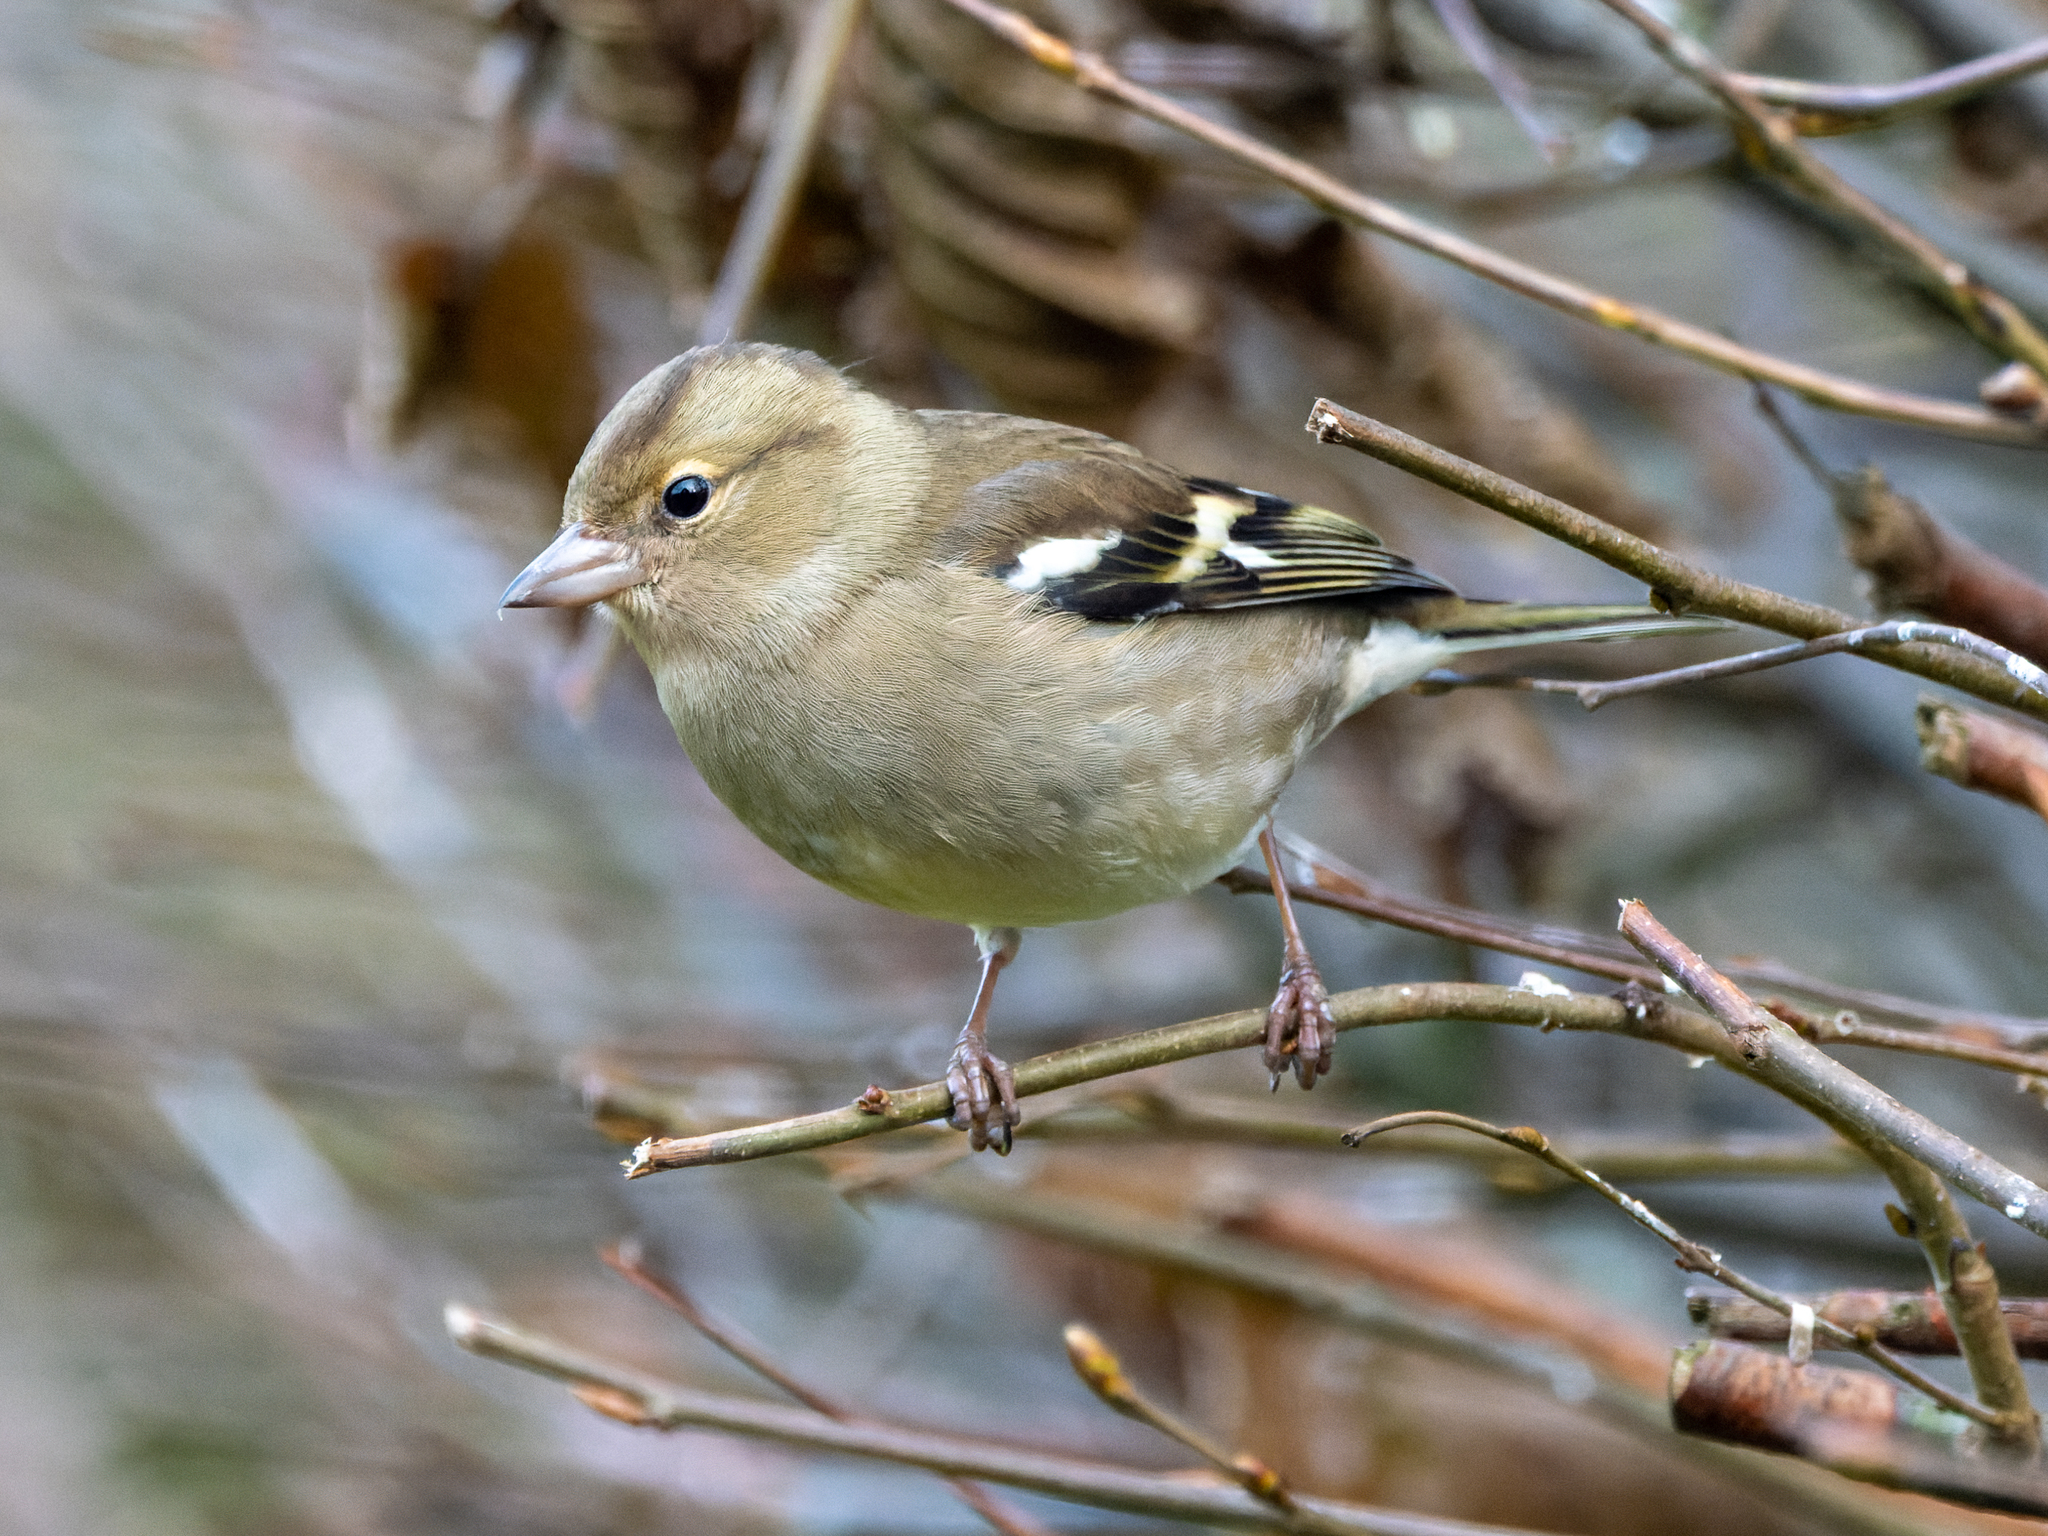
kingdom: Animalia
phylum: Chordata
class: Aves
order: Passeriformes
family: Fringillidae
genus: Fringilla
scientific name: Fringilla coelebs
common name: Common chaffinch
